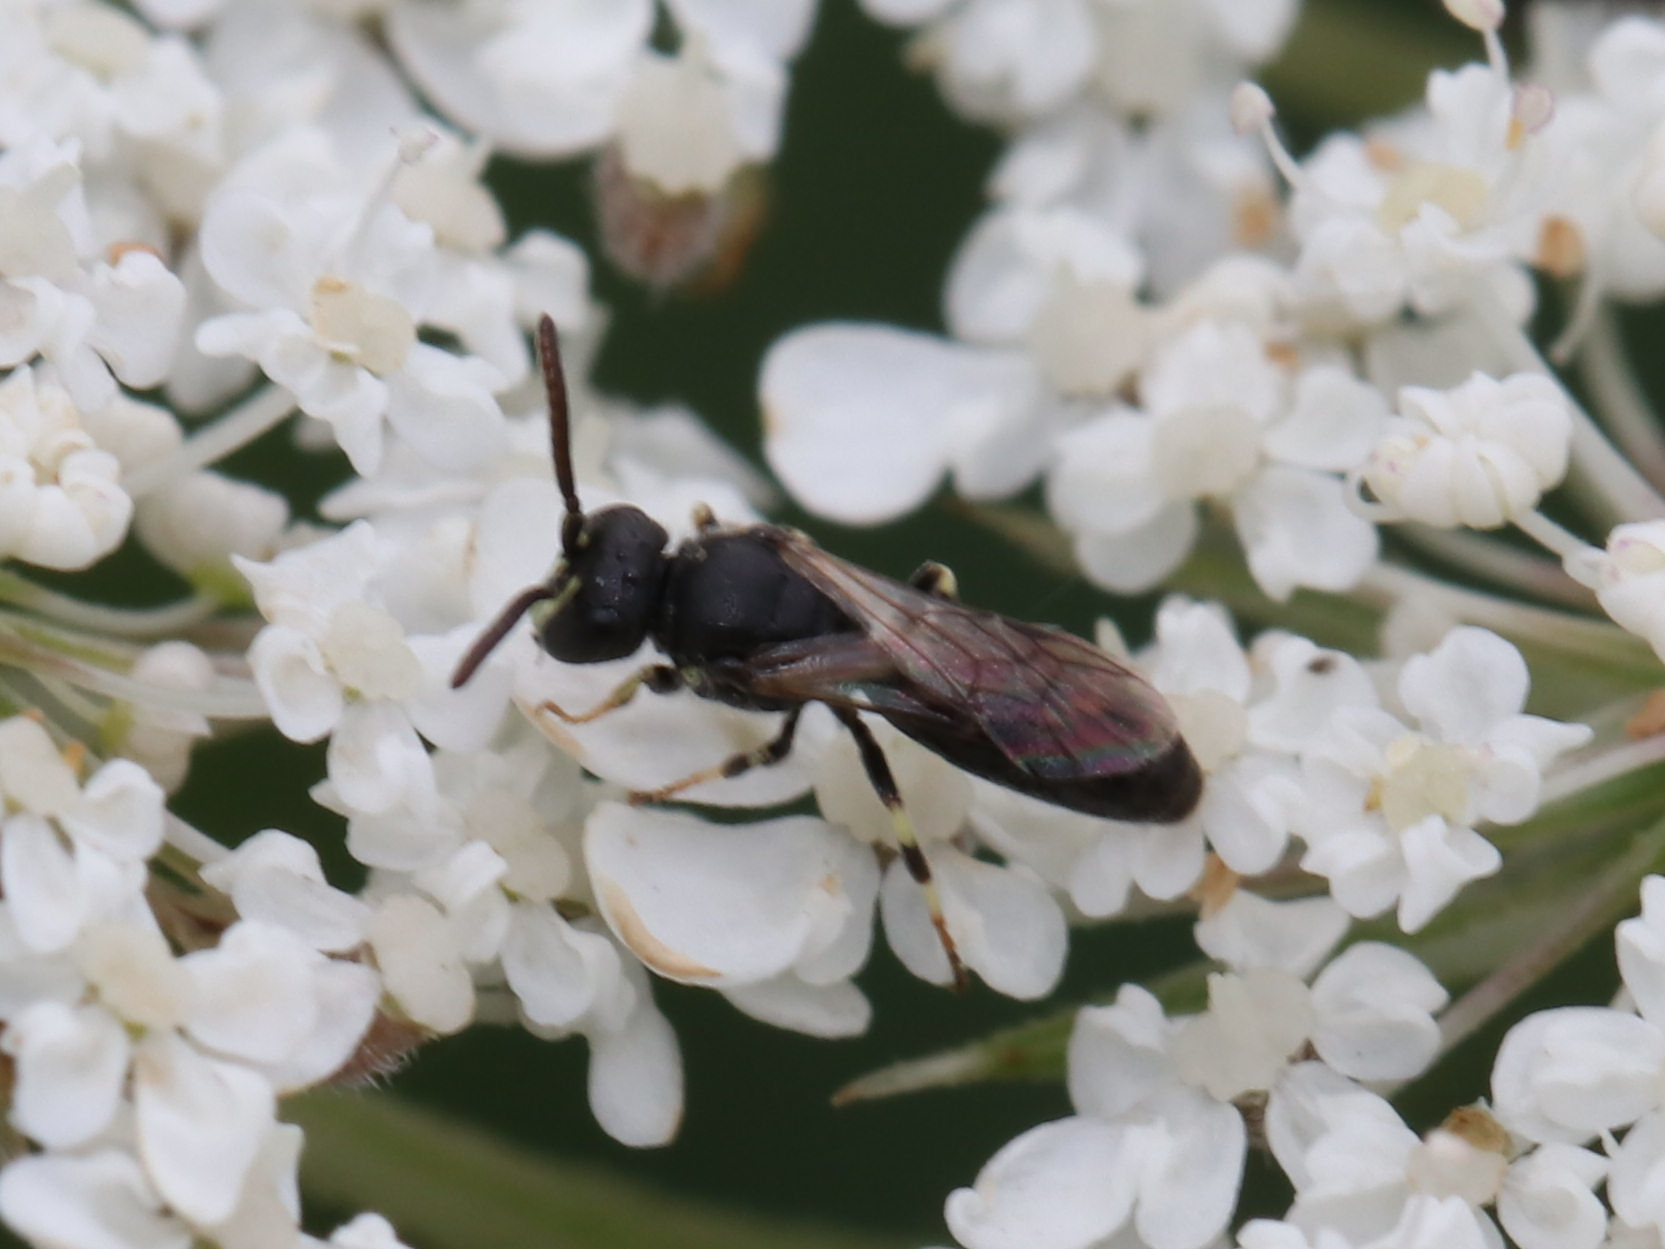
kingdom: Animalia
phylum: Arthropoda
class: Insecta
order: Hymenoptera
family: Colletidae
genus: Hylaeus
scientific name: Hylaeus mesillae
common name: Mesilla masked bee
